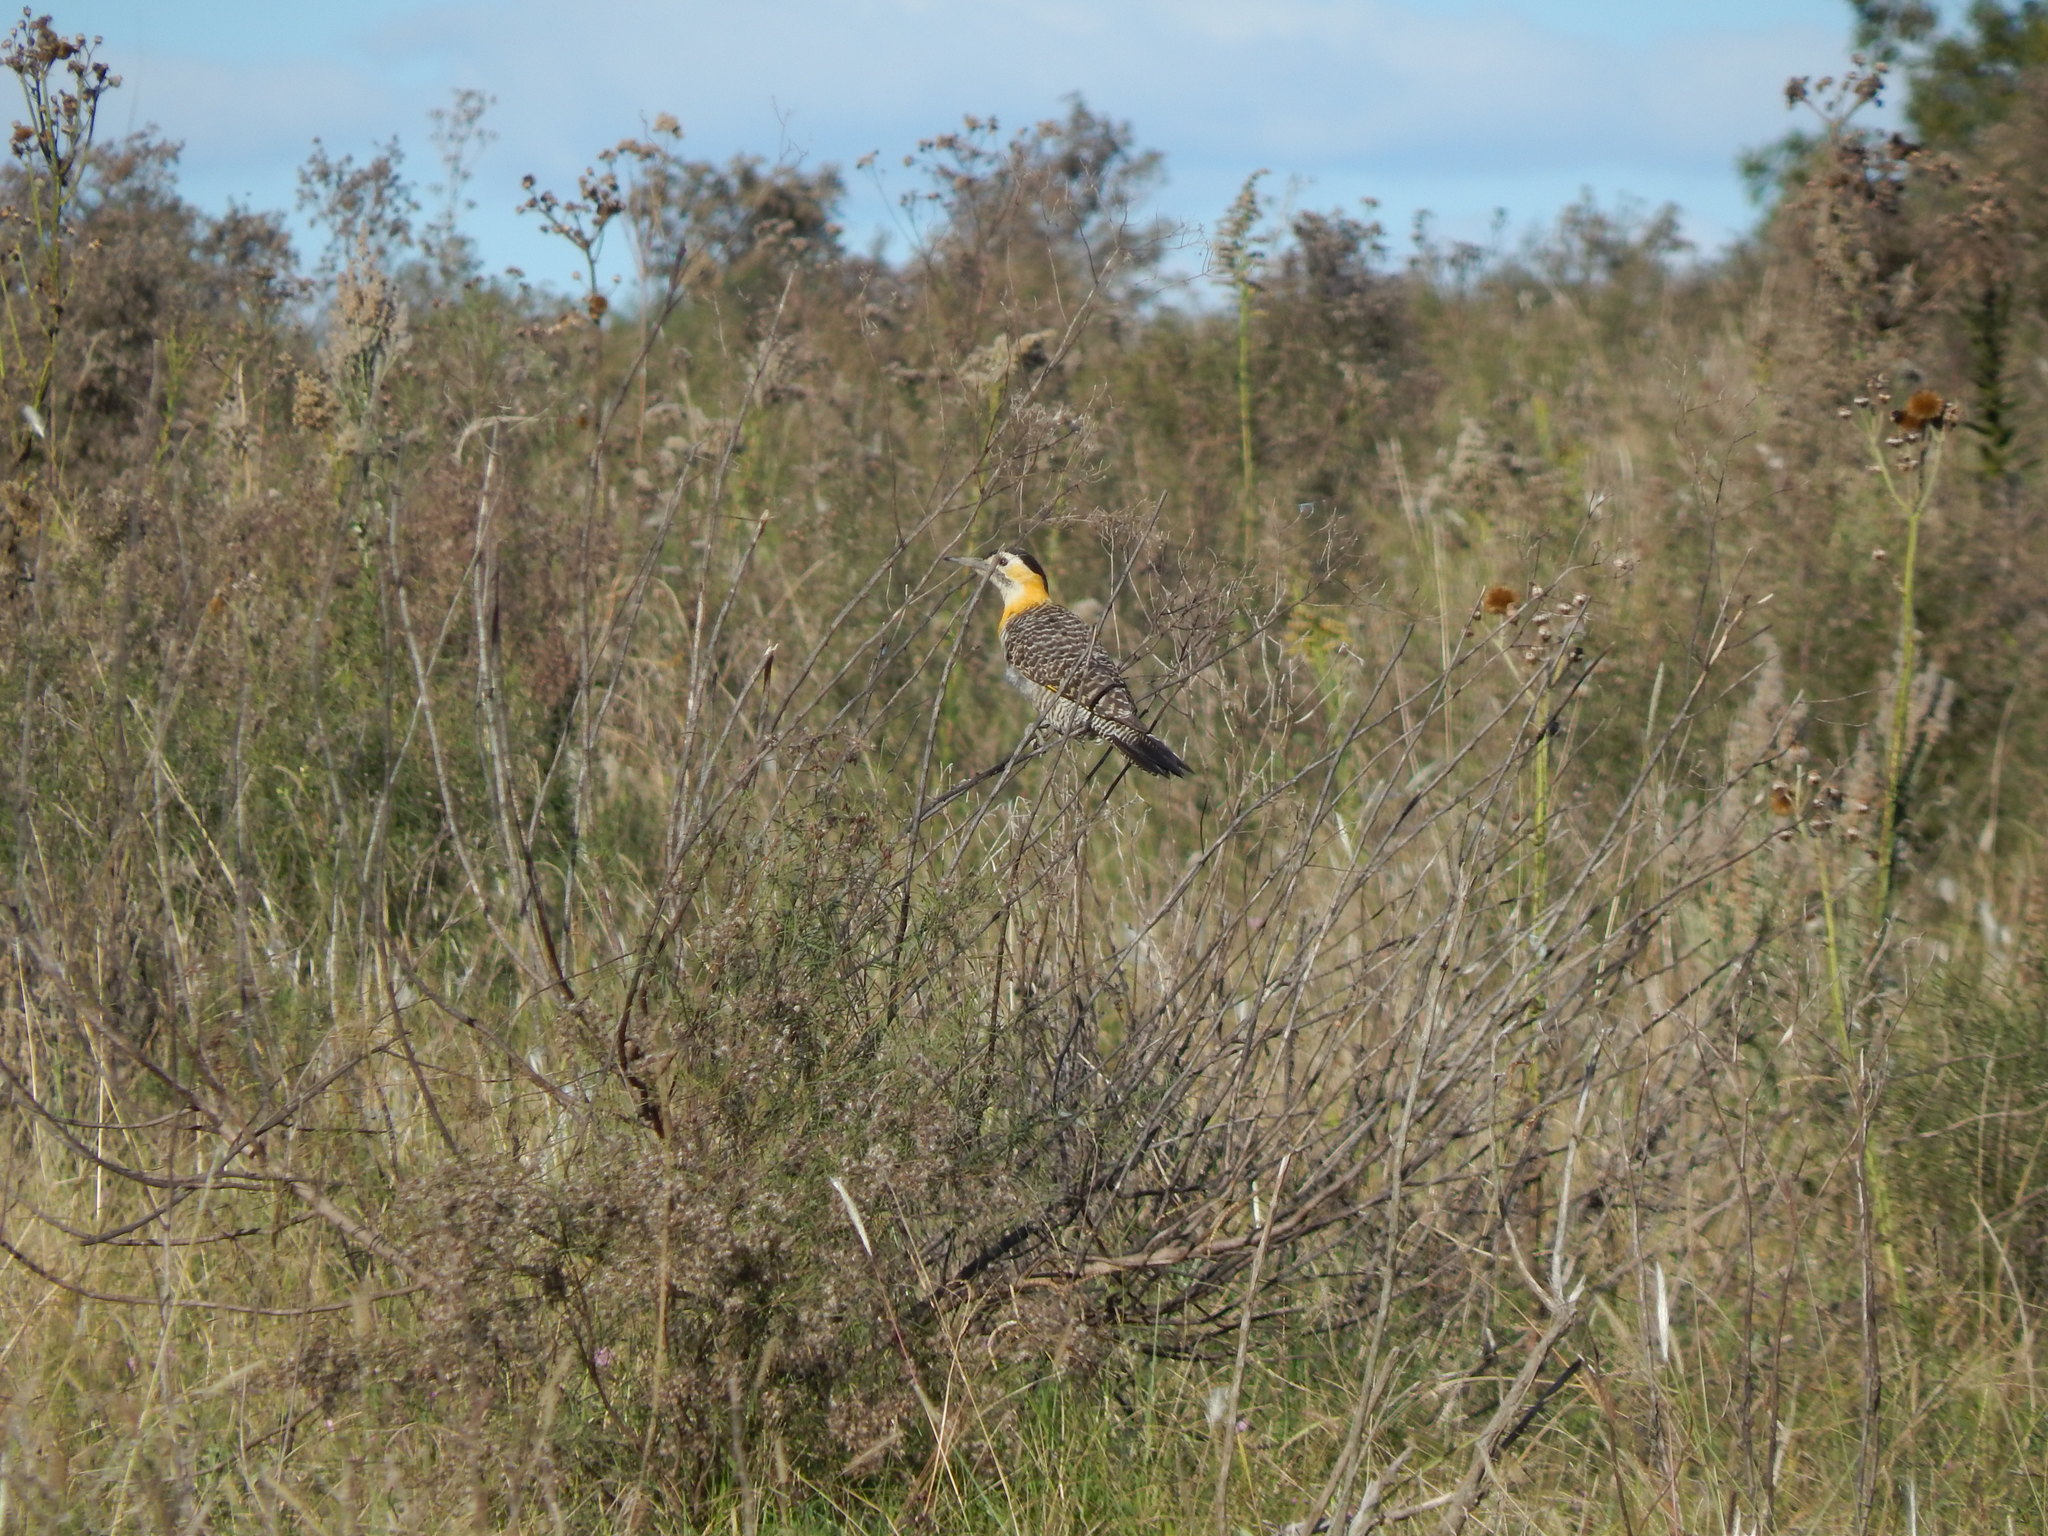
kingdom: Animalia
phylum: Chordata
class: Aves
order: Piciformes
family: Picidae
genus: Colaptes
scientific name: Colaptes campestris
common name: Campo flicker
